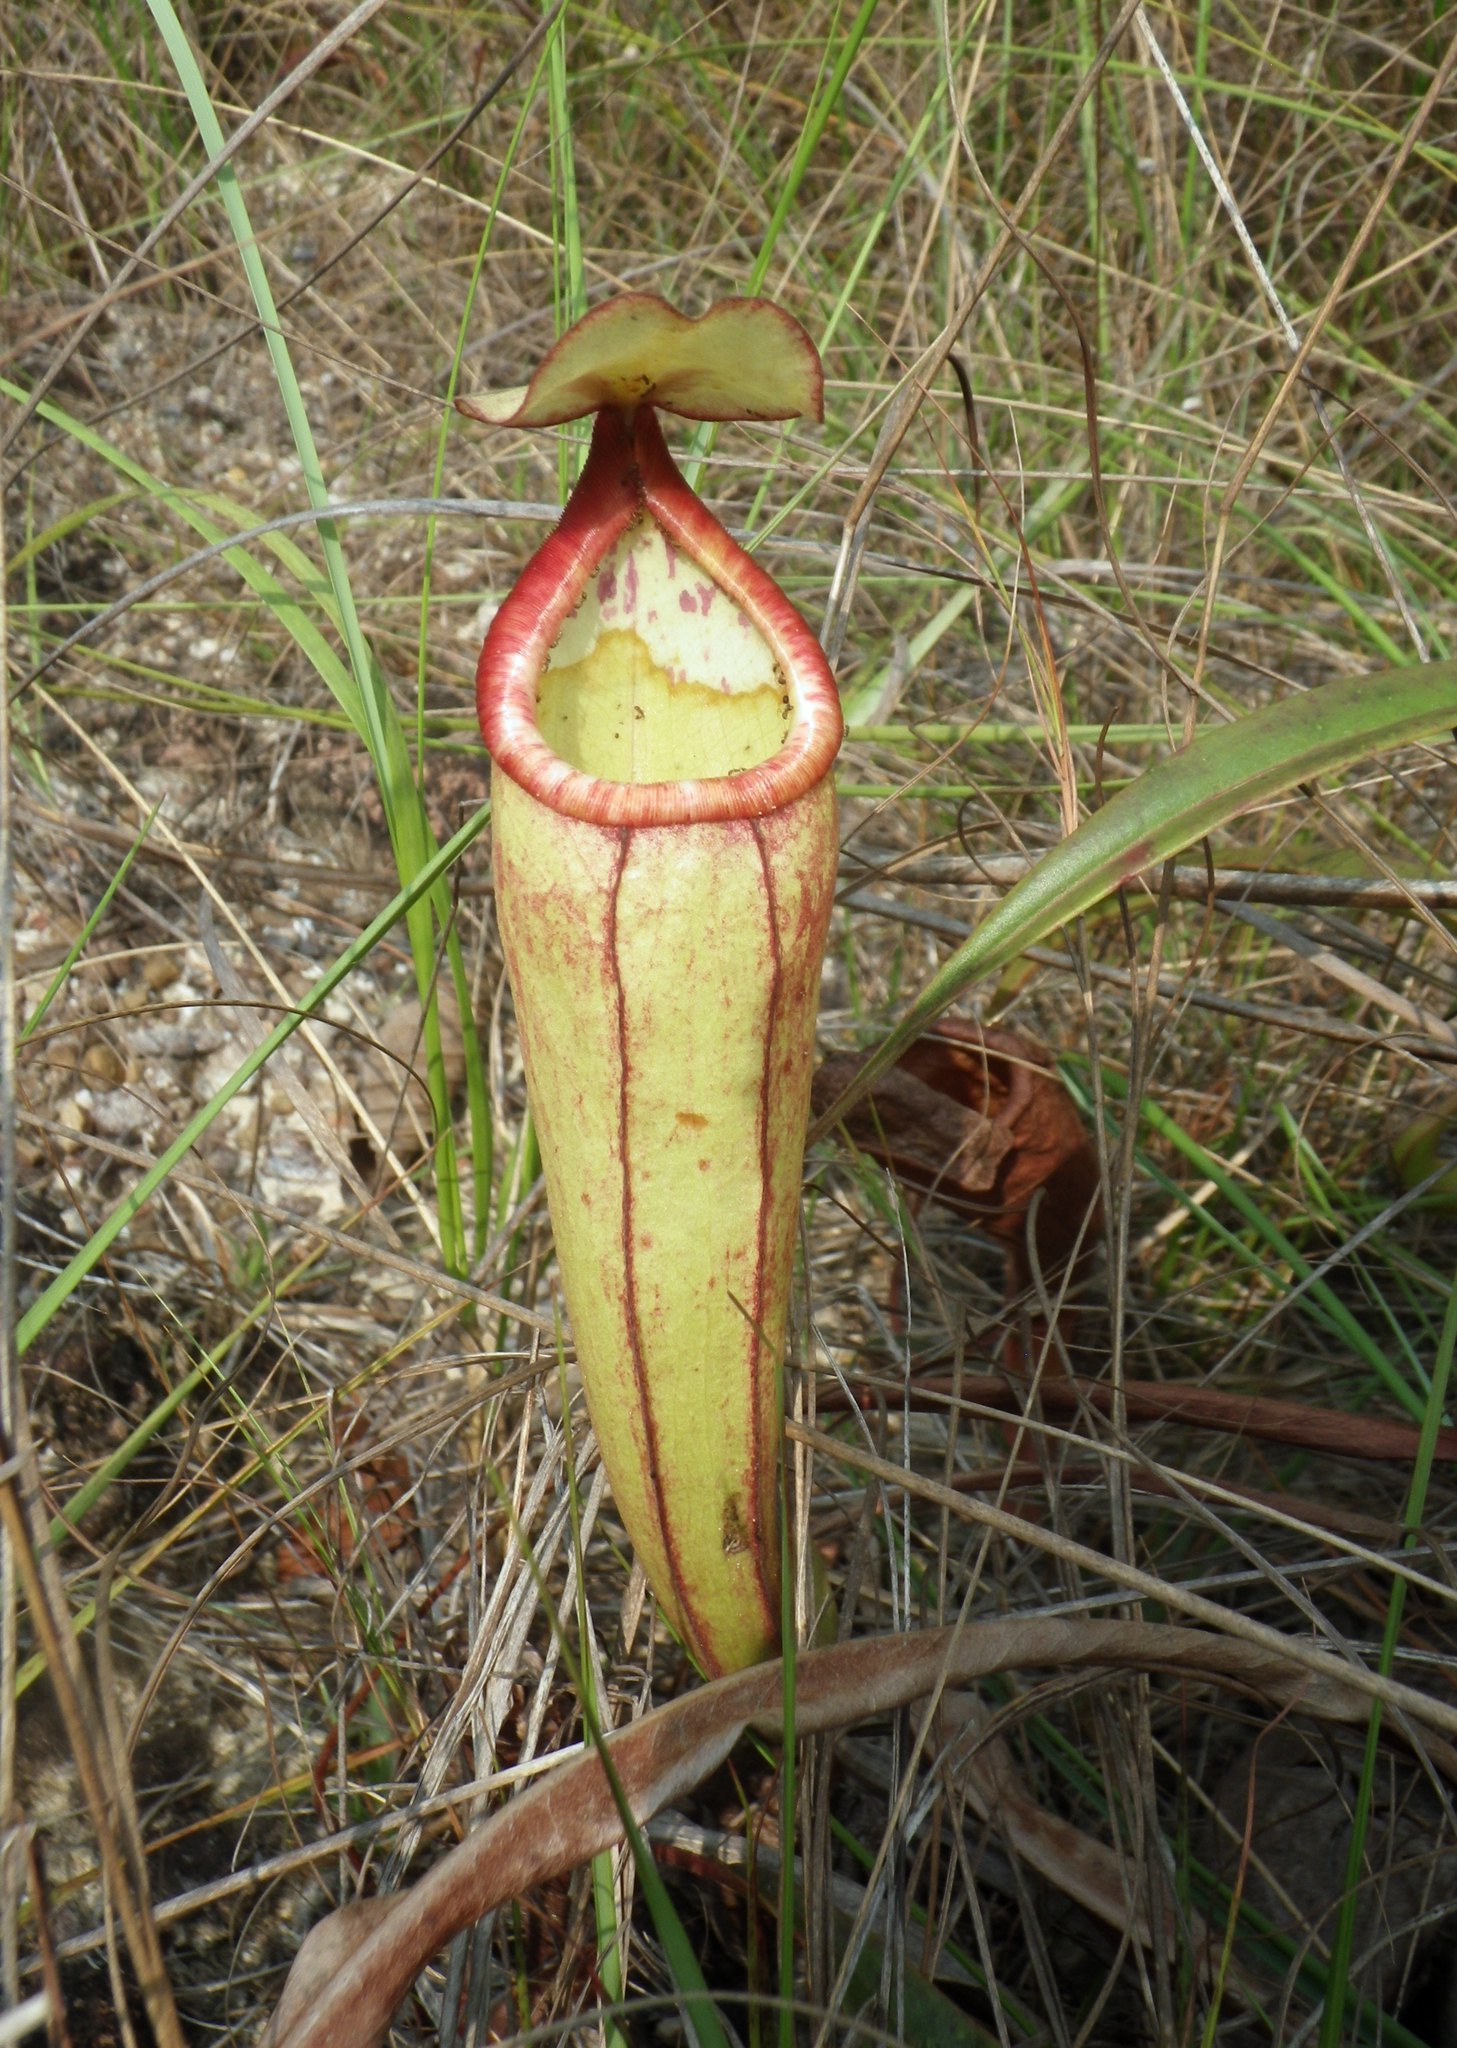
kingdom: Plantae
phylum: Tracheophyta
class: Magnoliopsida
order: Caryophyllales
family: Nepenthaceae
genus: Nepenthes
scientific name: Nepenthes smilesii
